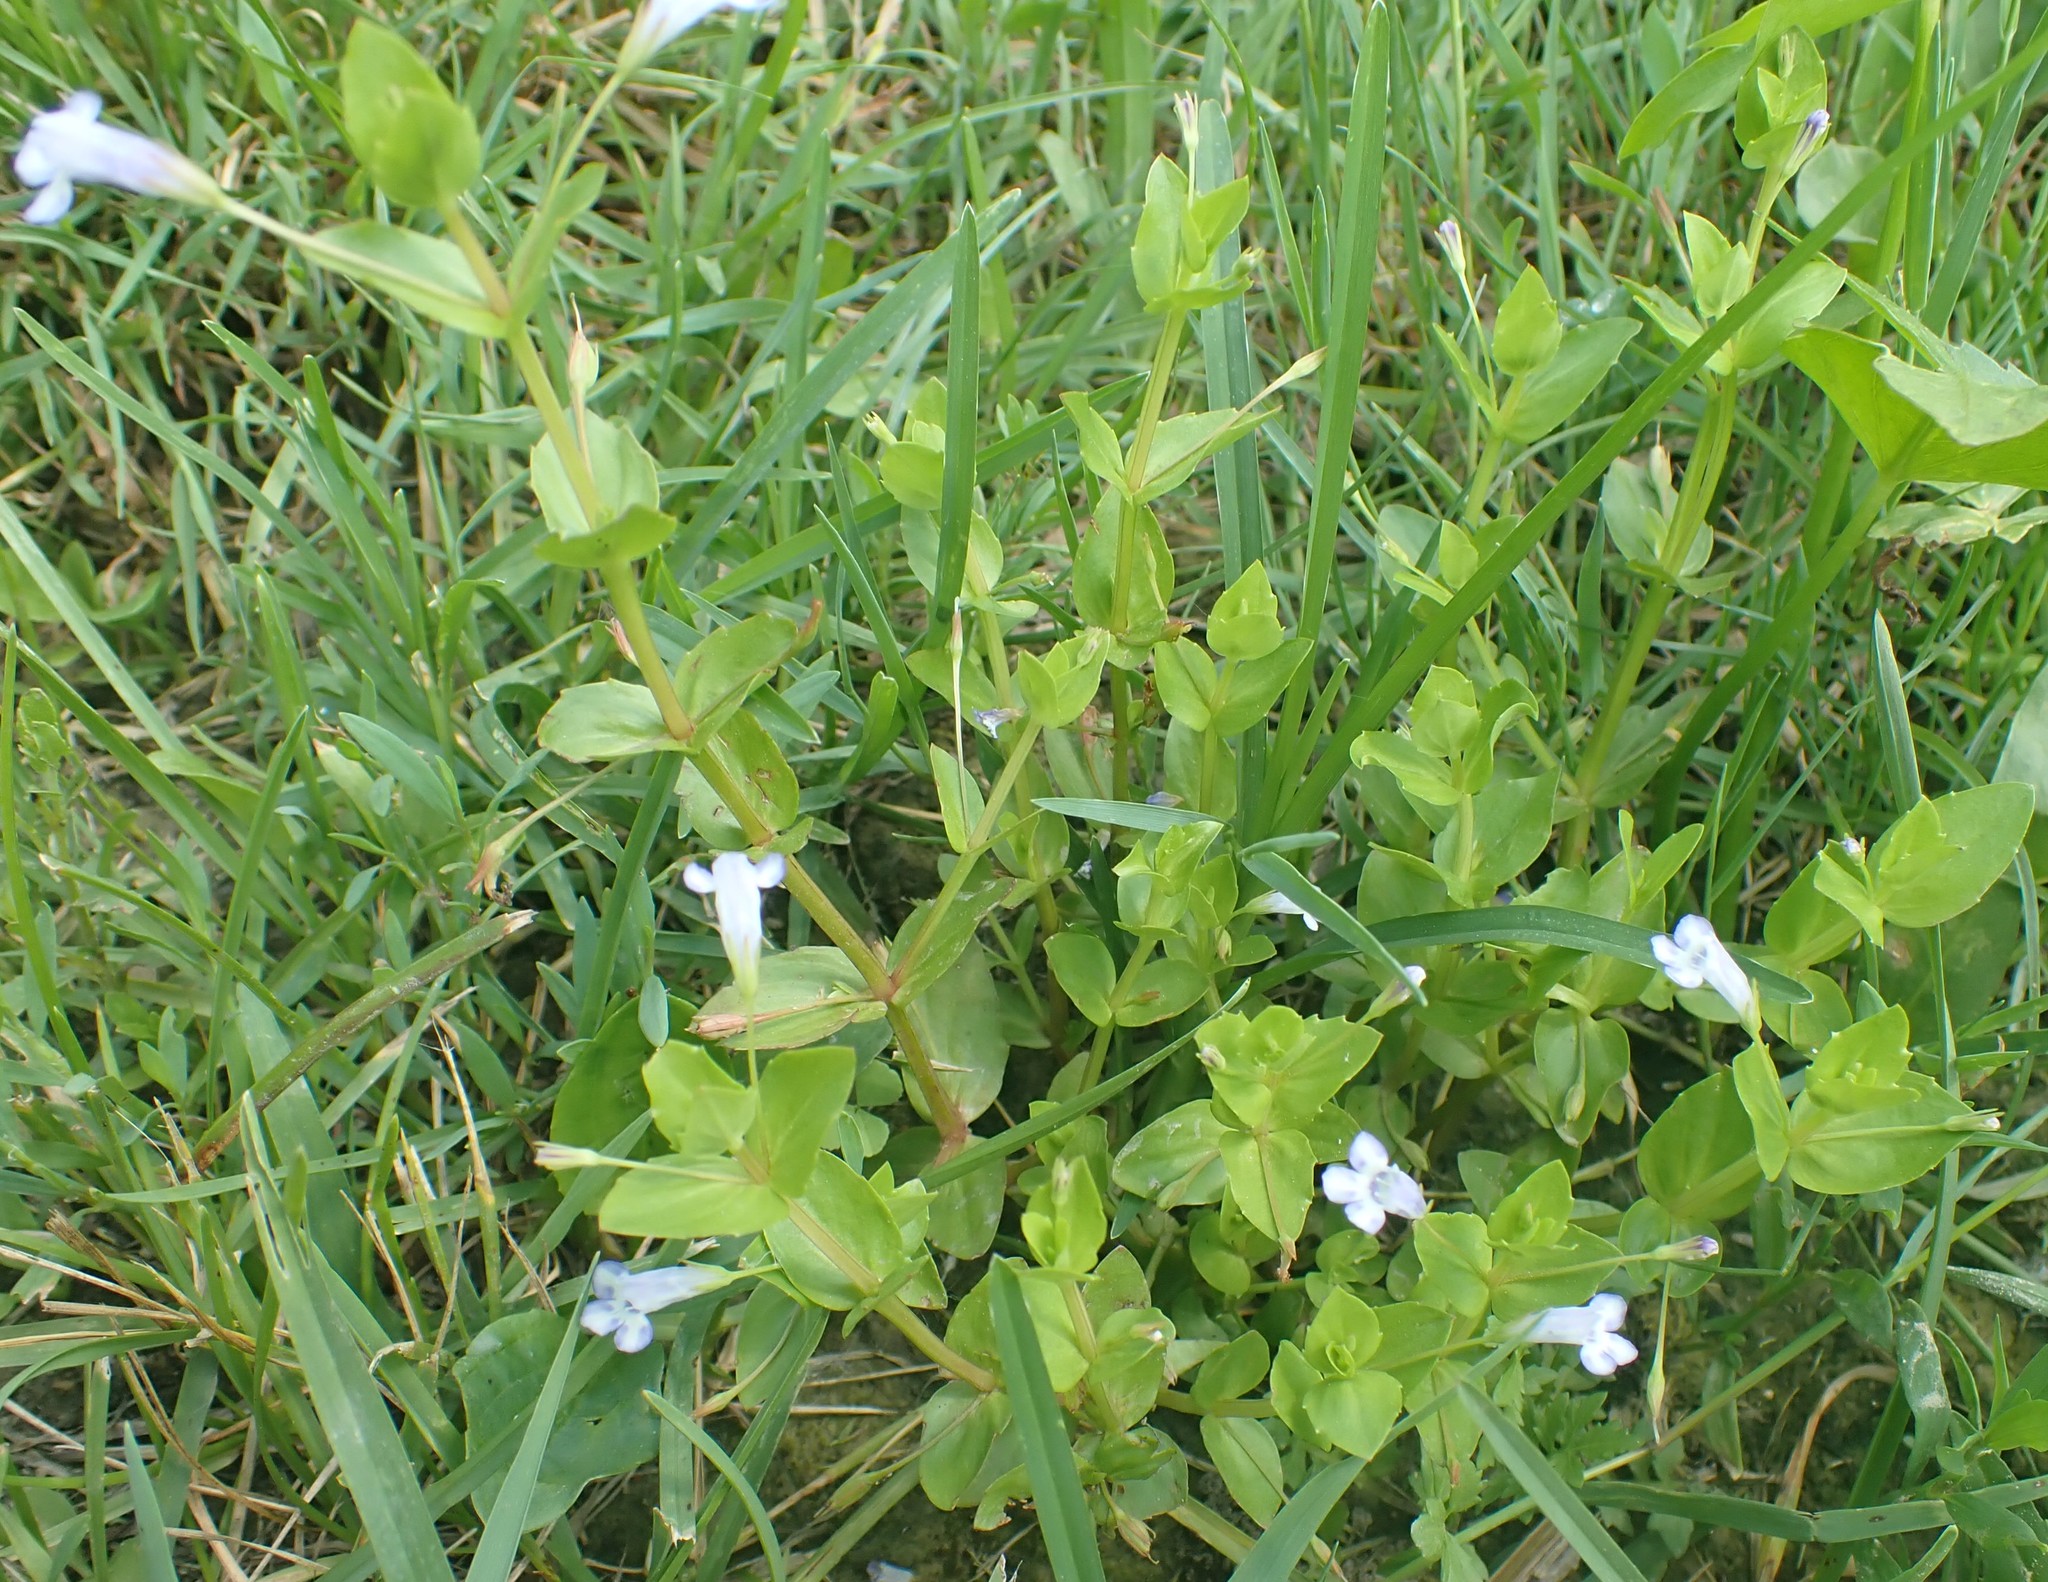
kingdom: Plantae
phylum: Tracheophyta
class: Magnoliopsida
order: Lamiales
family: Linderniaceae
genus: Lindernia
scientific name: Lindernia dubia
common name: Annual false pimpernel
